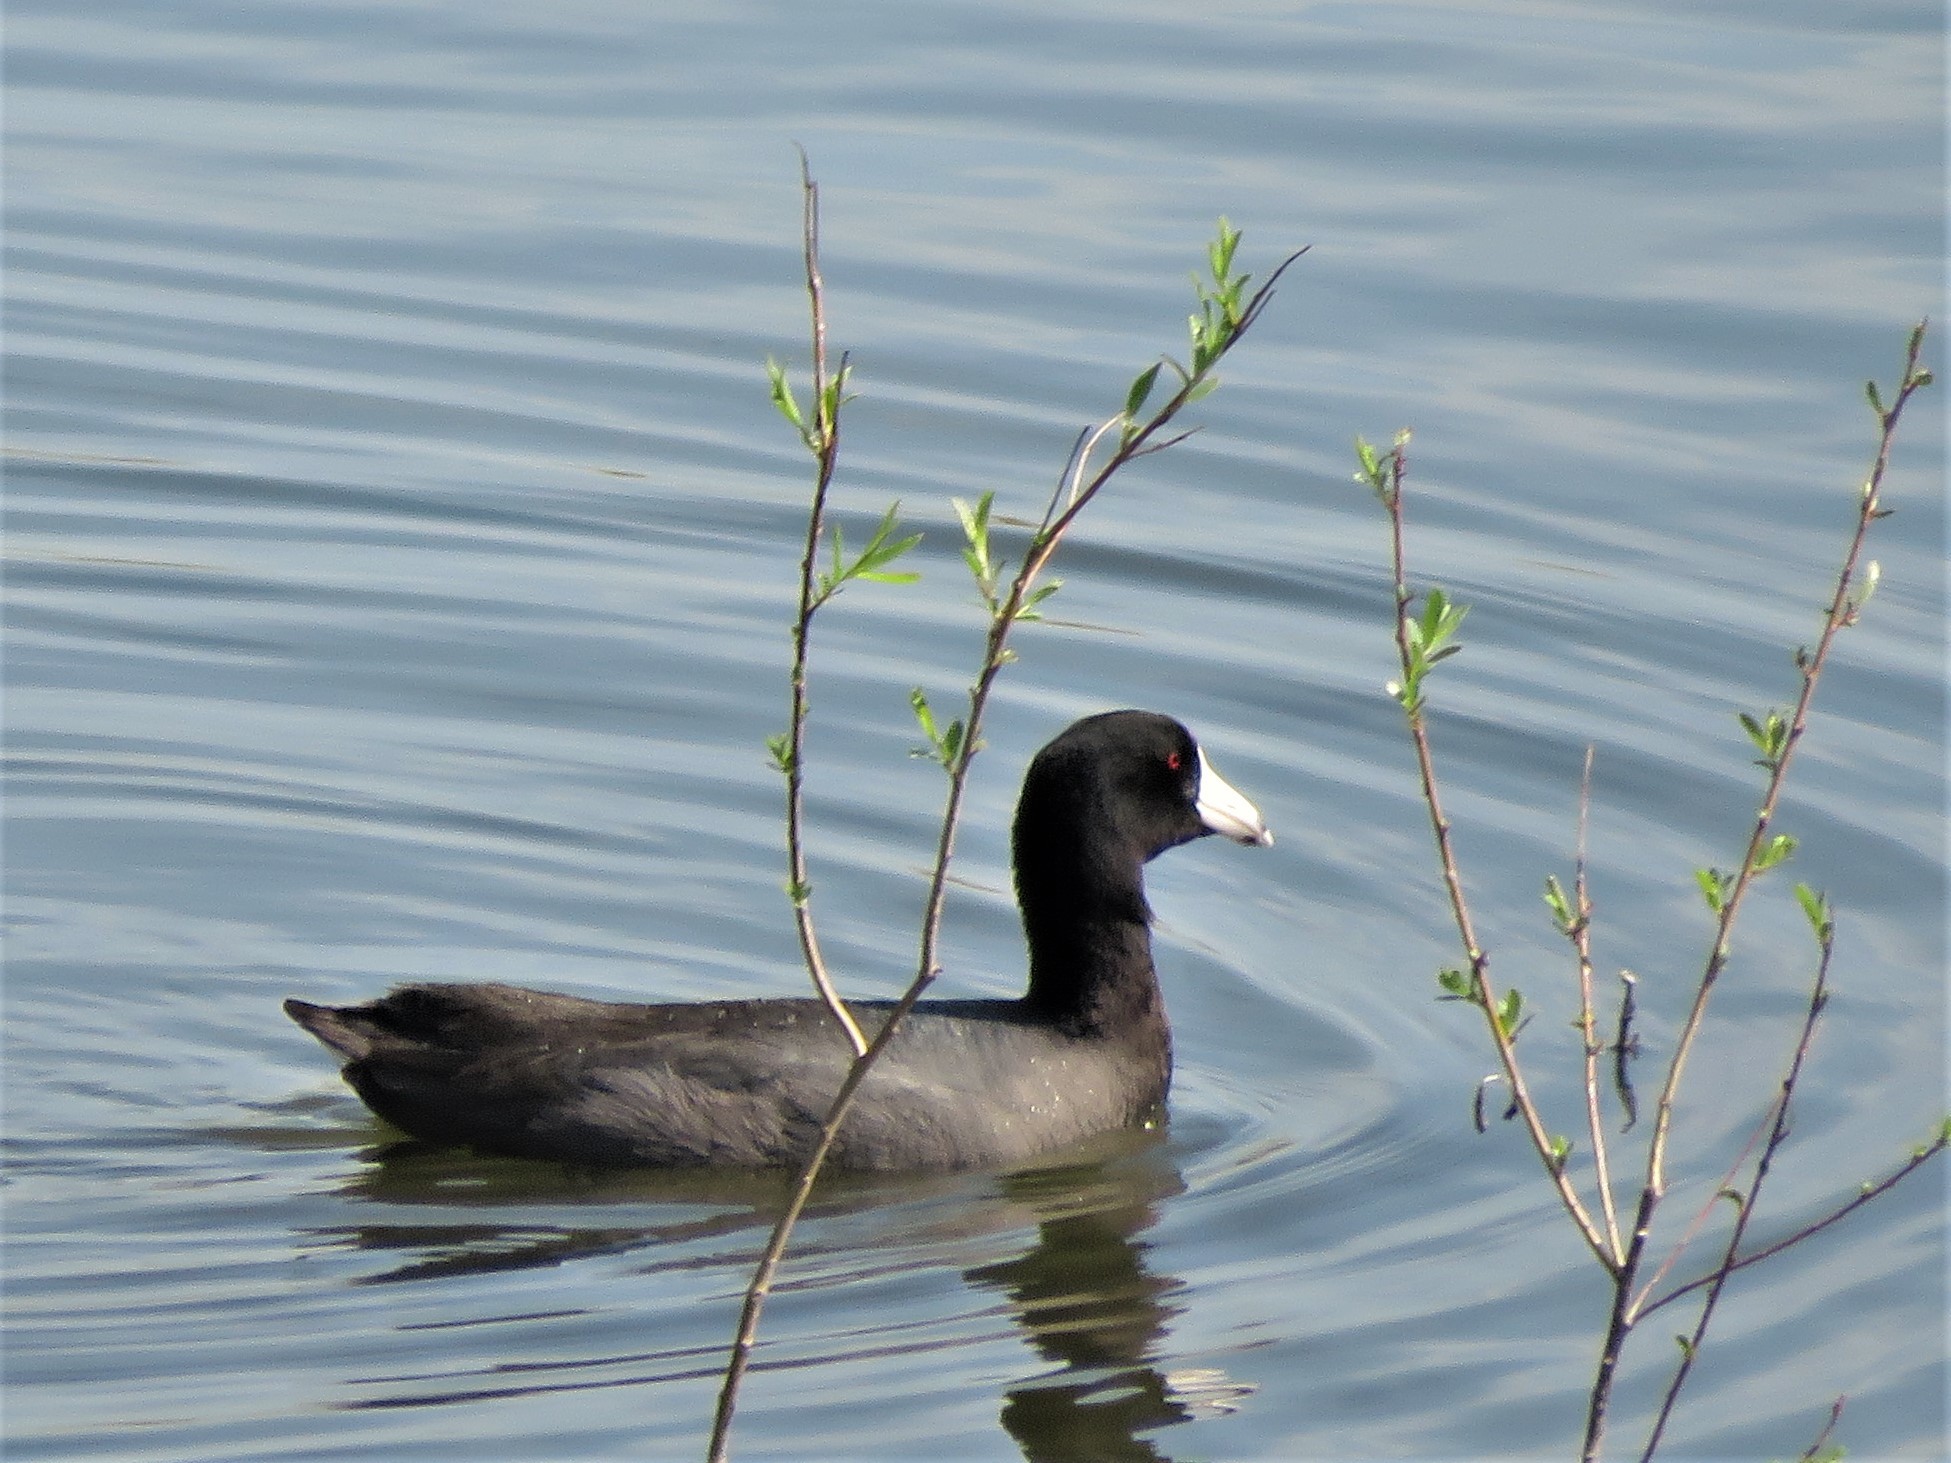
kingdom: Animalia
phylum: Chordata
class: Aves
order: Gruiformes
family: Rallidae
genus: Fulica
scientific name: Fulica americana
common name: American coot
